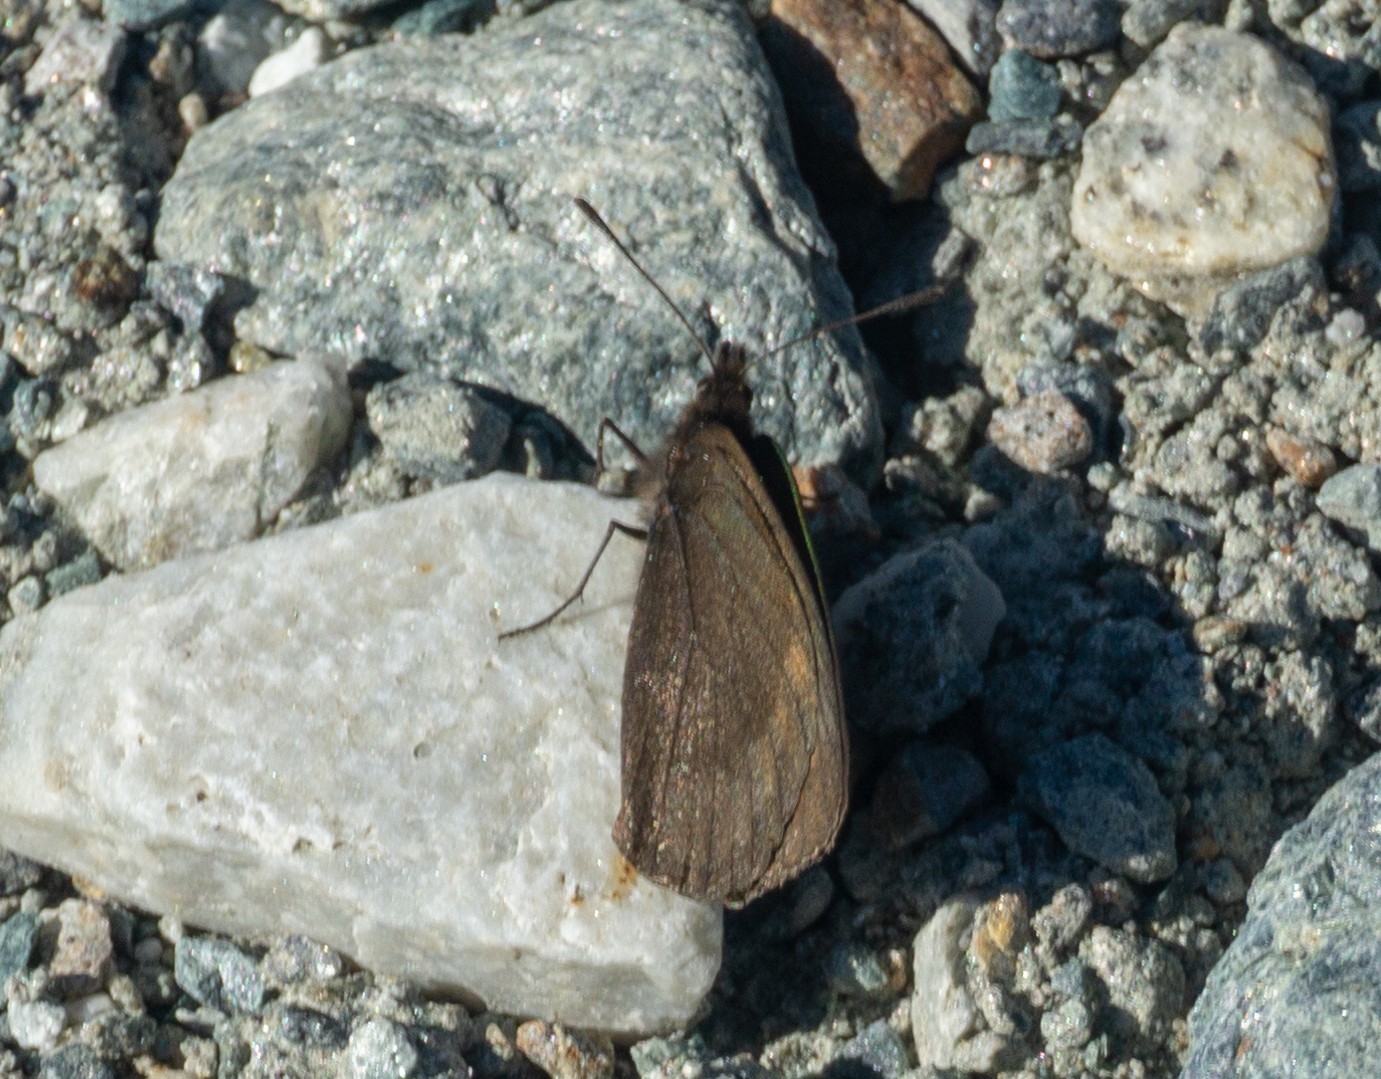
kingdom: Animalia
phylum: Arthropoda
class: Insecta
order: Lepidoptera
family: Nymphalidae
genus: Erebia
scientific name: Erebia pluto
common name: Sooty ringlet
